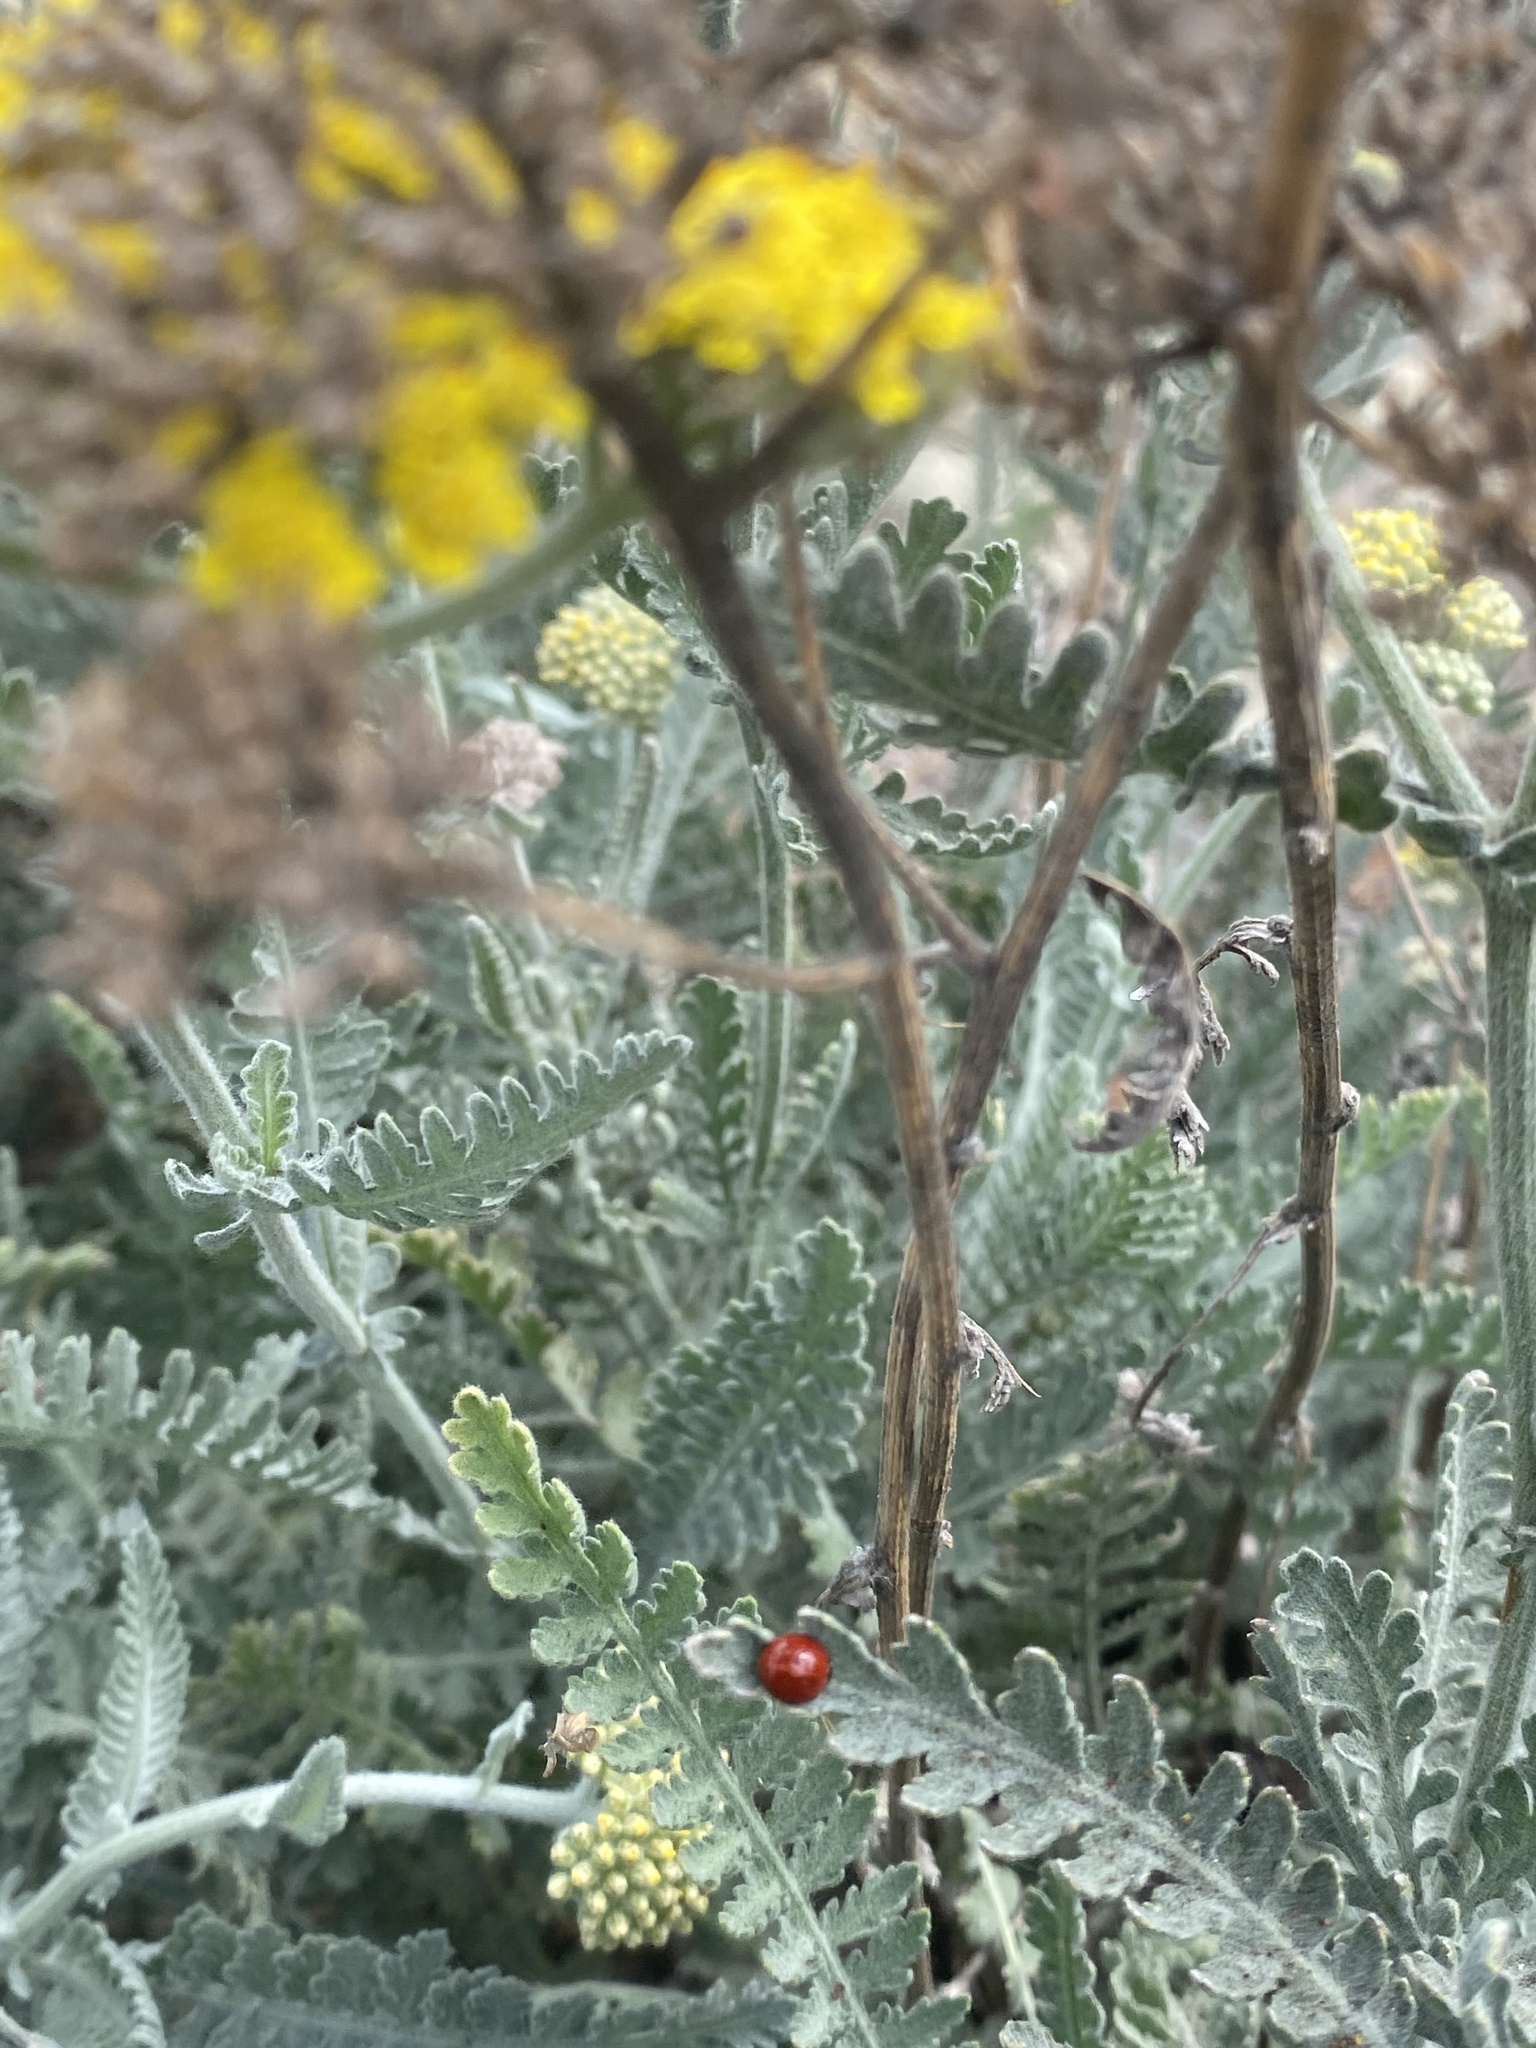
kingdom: Animalia
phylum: Arthropoda
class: Insecta
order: Coleoptera
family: Coccinellidae
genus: Cycloneda
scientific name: Cycloneda
